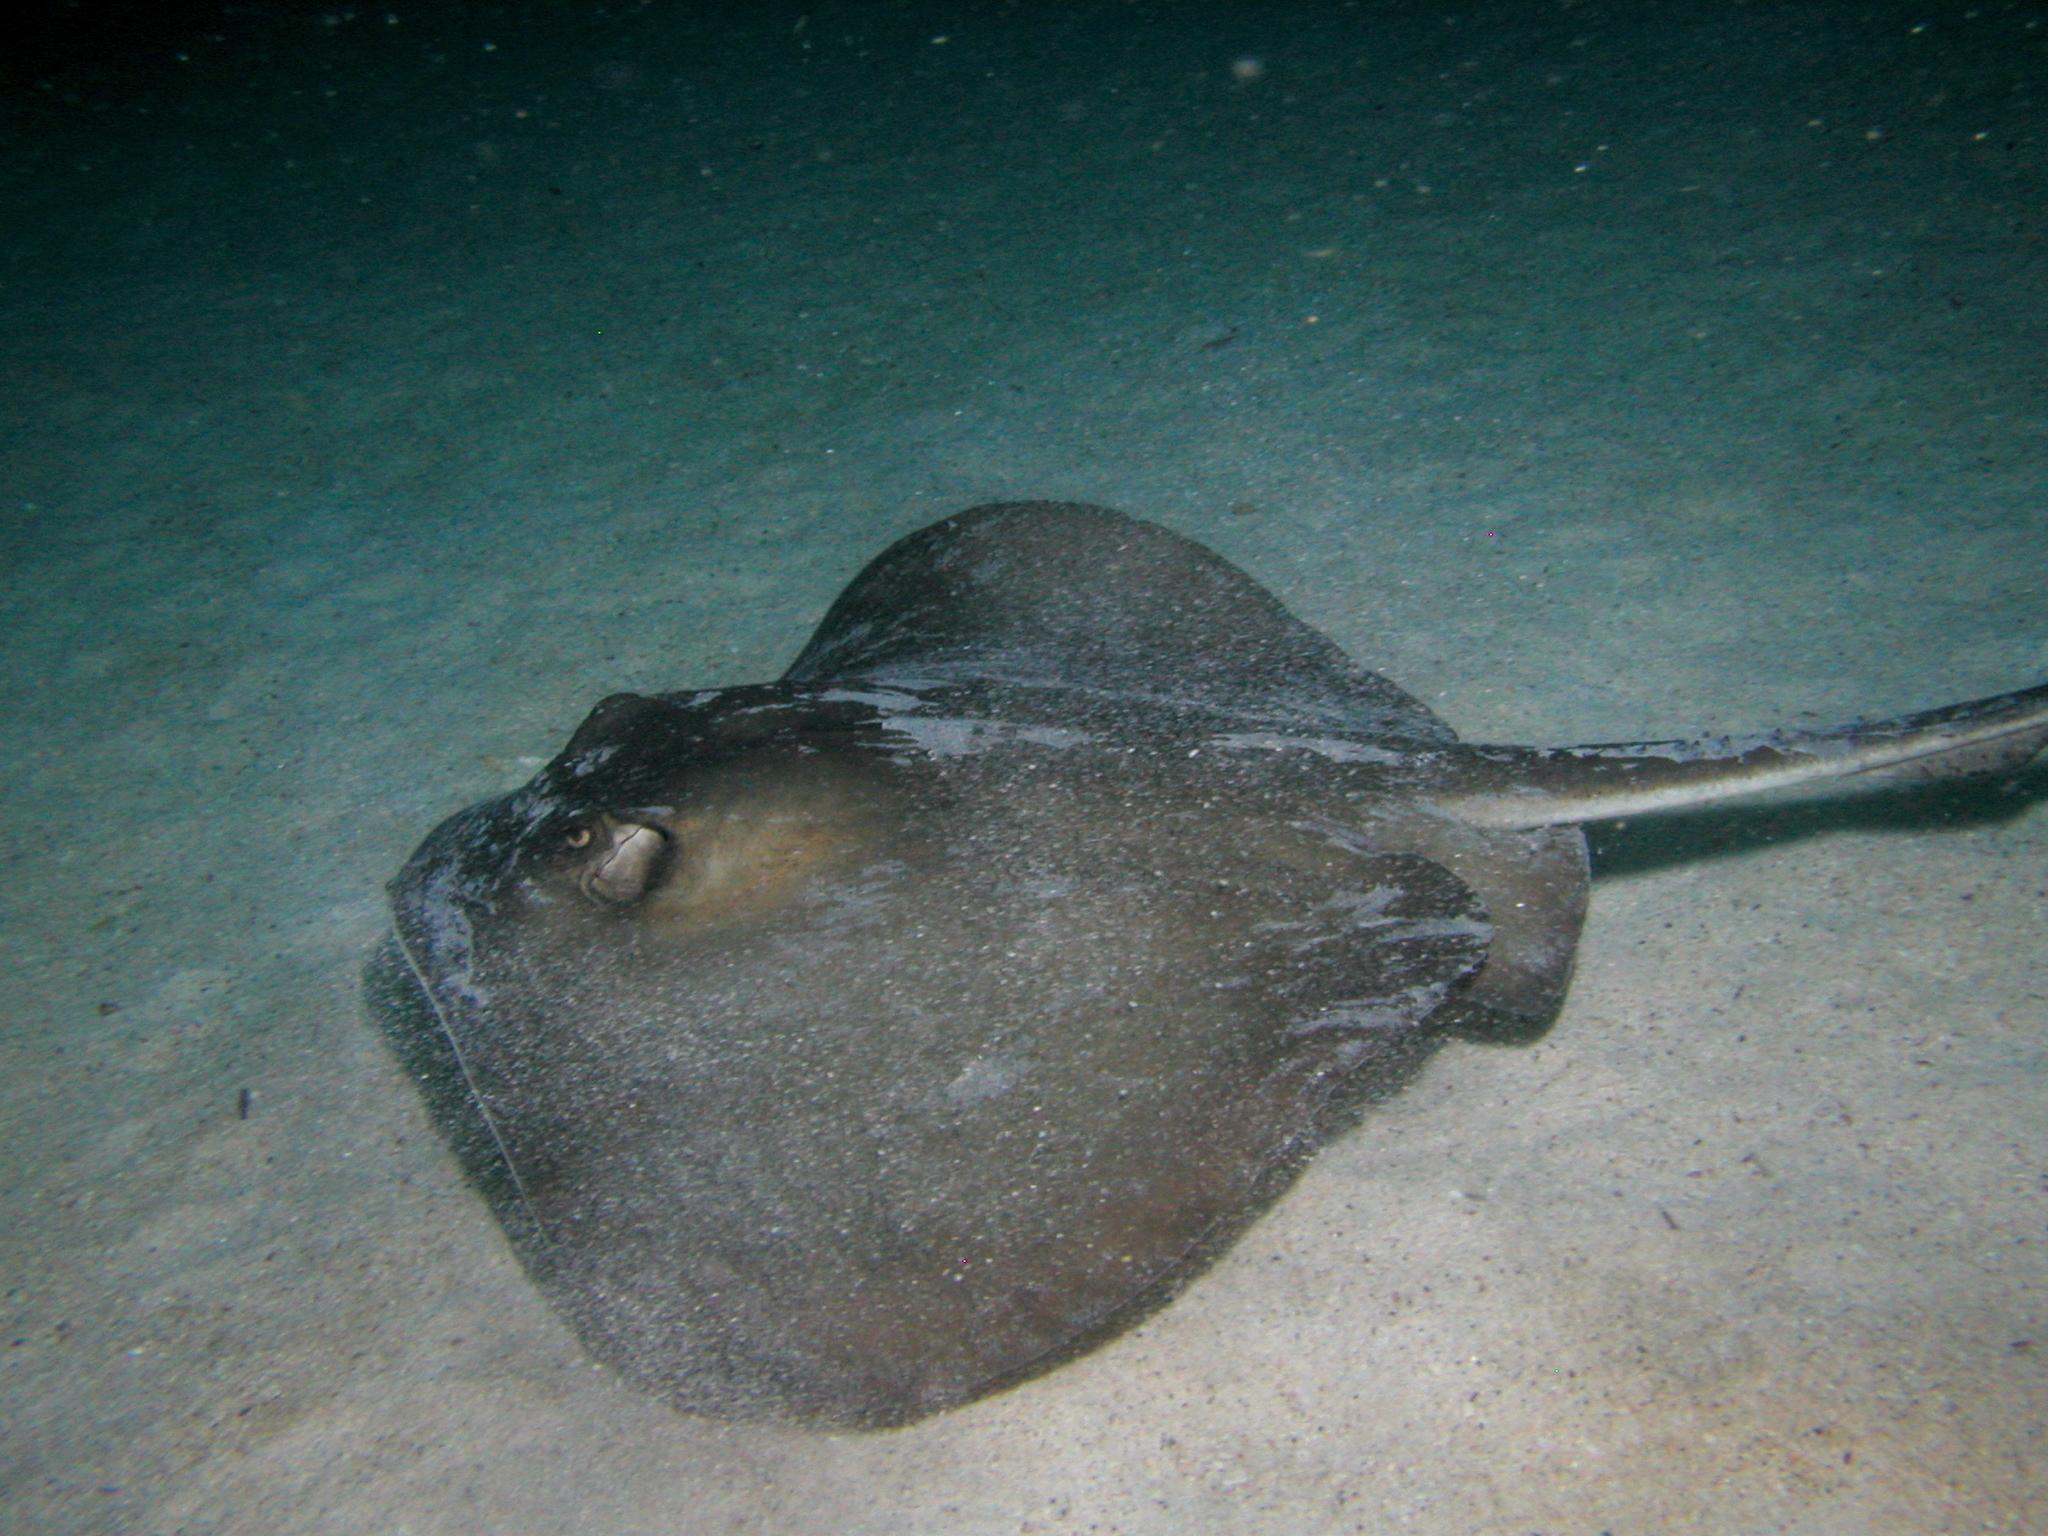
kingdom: Animalia
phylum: Chordata
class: Elasmobranchii
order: Myliobatiformes
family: Dasyatidae
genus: Hypanus
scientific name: Hypanus dipterurus
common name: Diamond stingray
